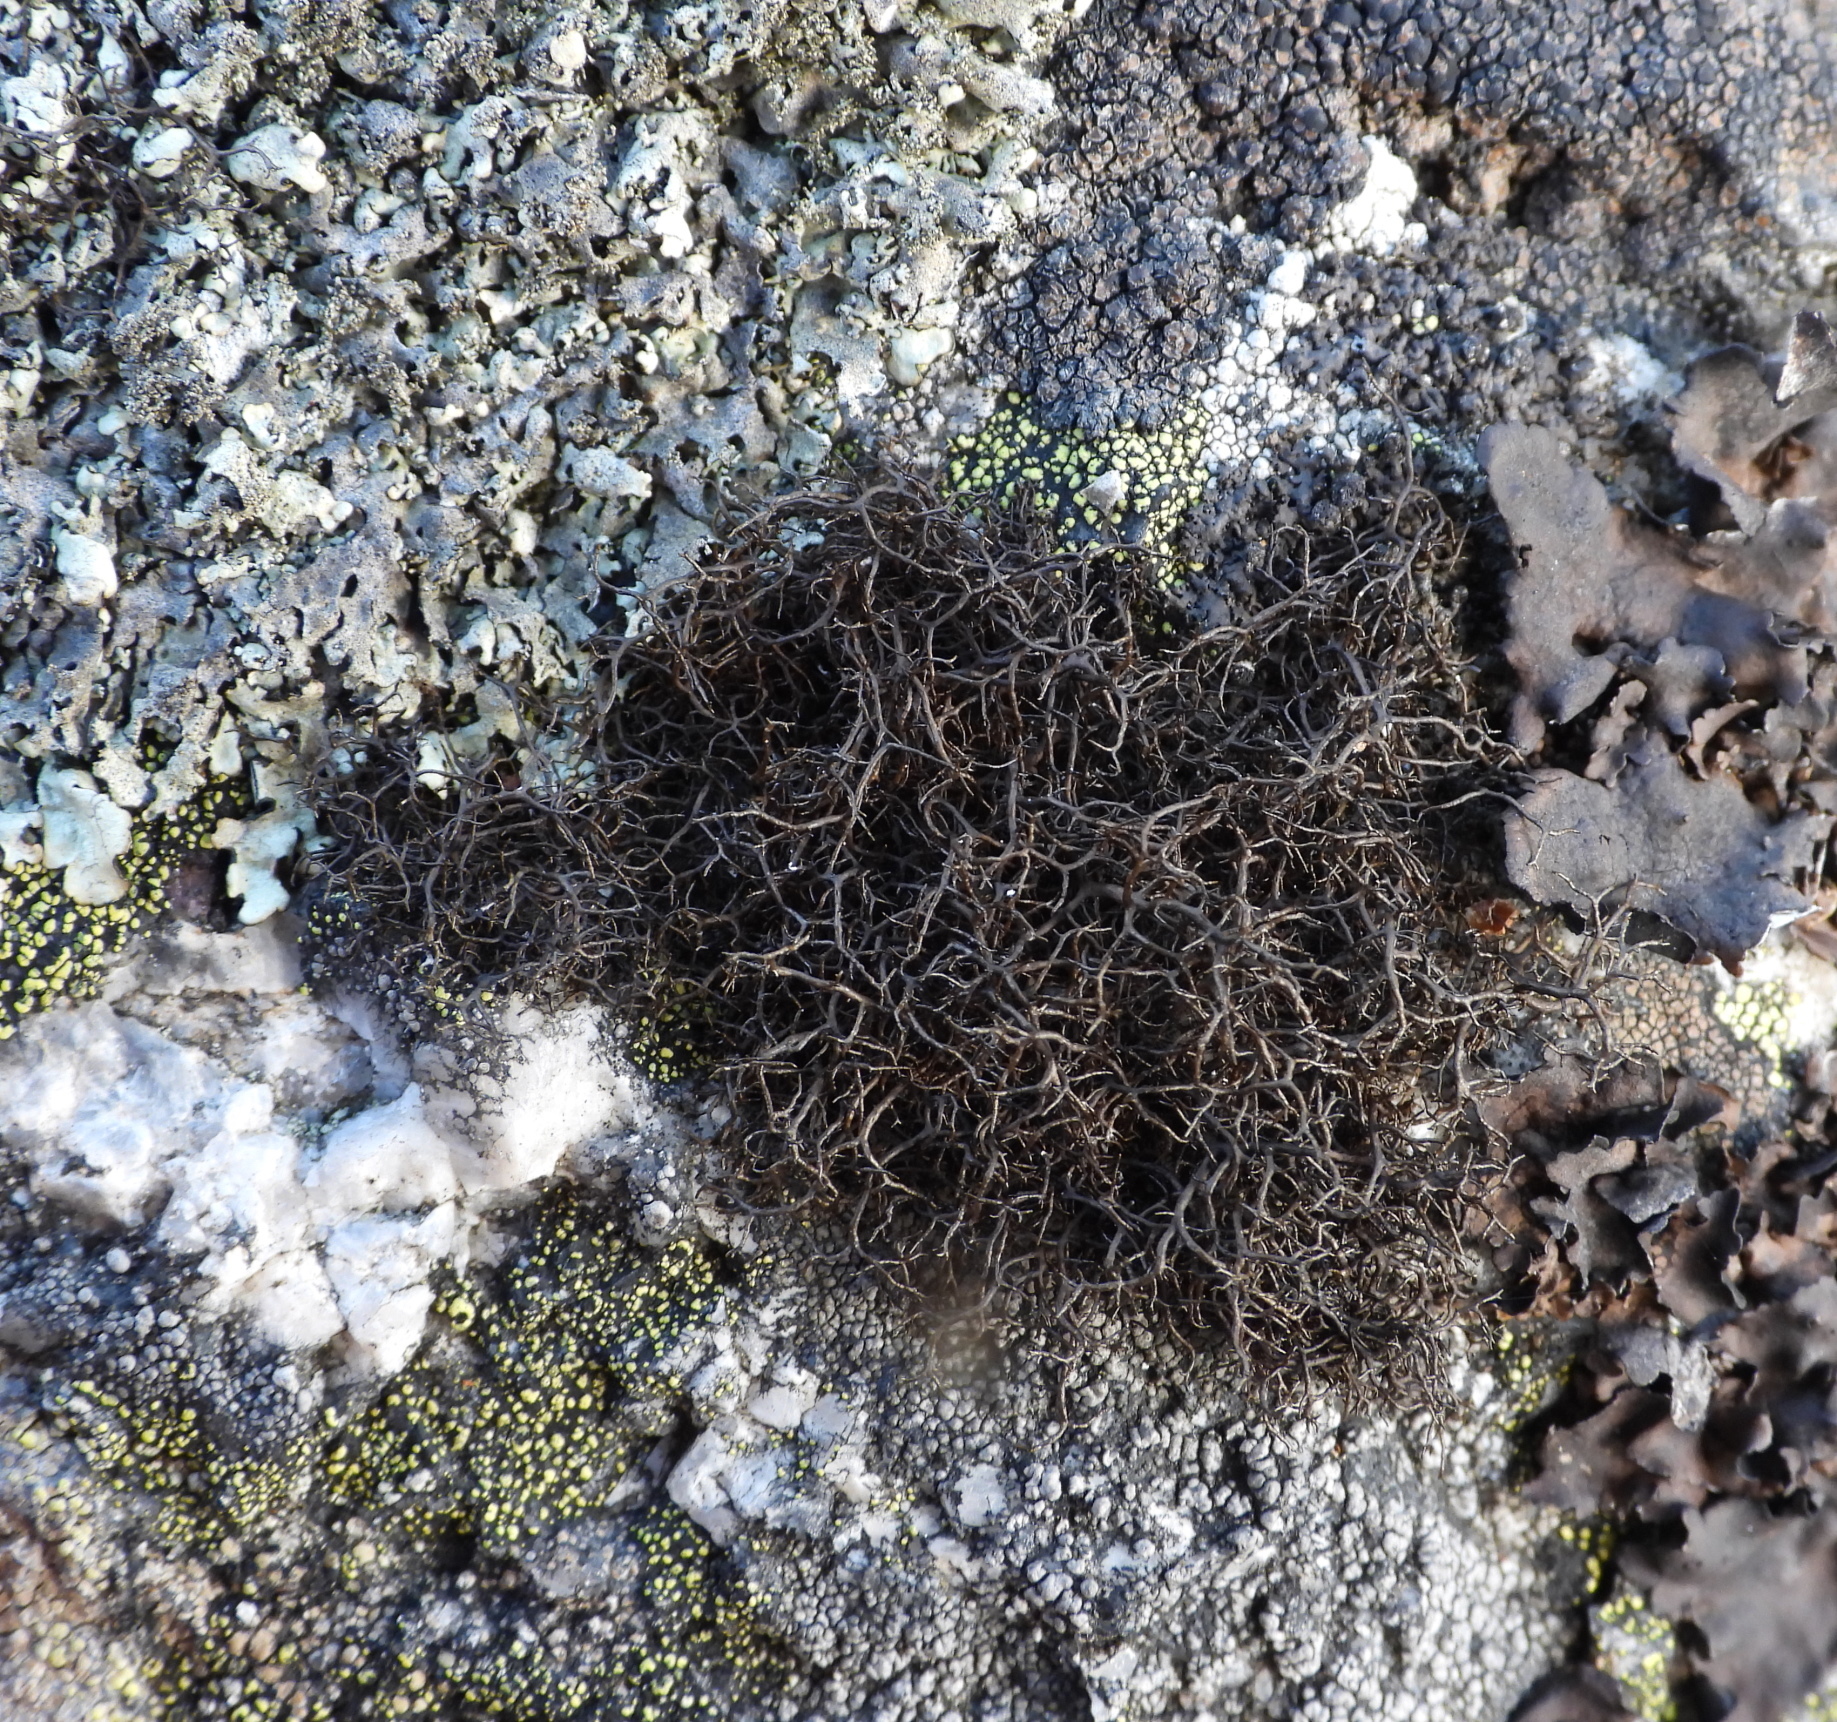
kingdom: Fungi
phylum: Ascomycota
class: Lecanoromycetes
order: Lecanorales
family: Parmeliaceae
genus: Pseudephebe
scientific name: Pseudephebe pubescens
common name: Fine rockwool lichen
